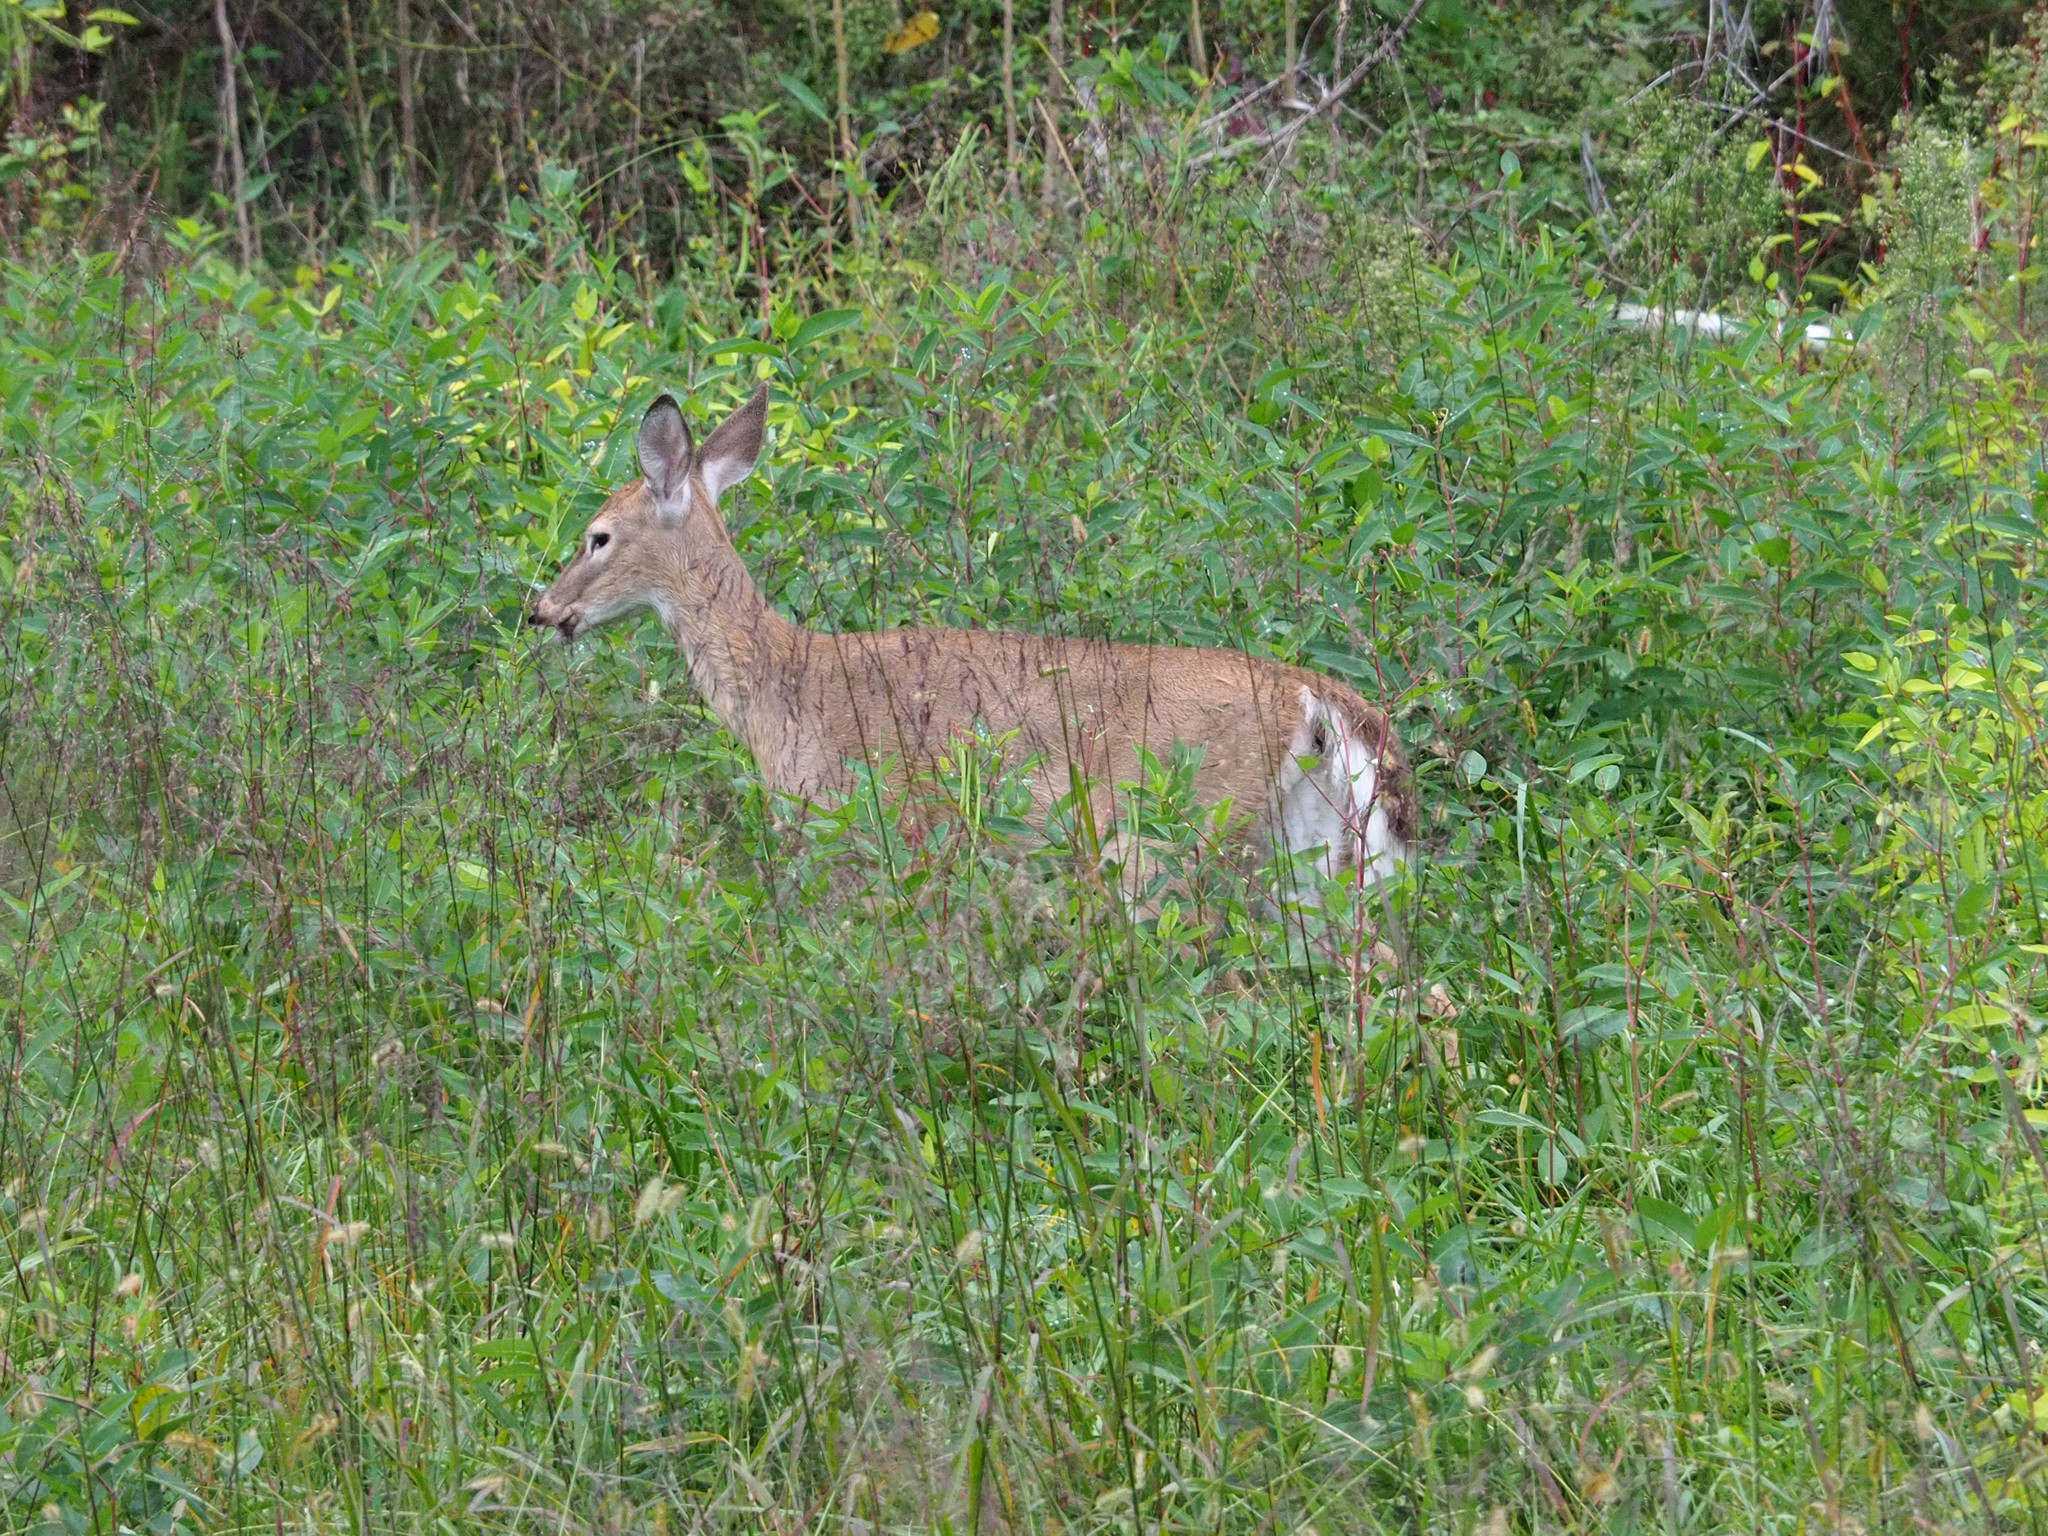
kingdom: Animalia
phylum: Chordata
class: Mammalia
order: Artiodactyla
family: Cervidae
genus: Odocoileus
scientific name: Odocoileus virginianus
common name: White-tailed deer
